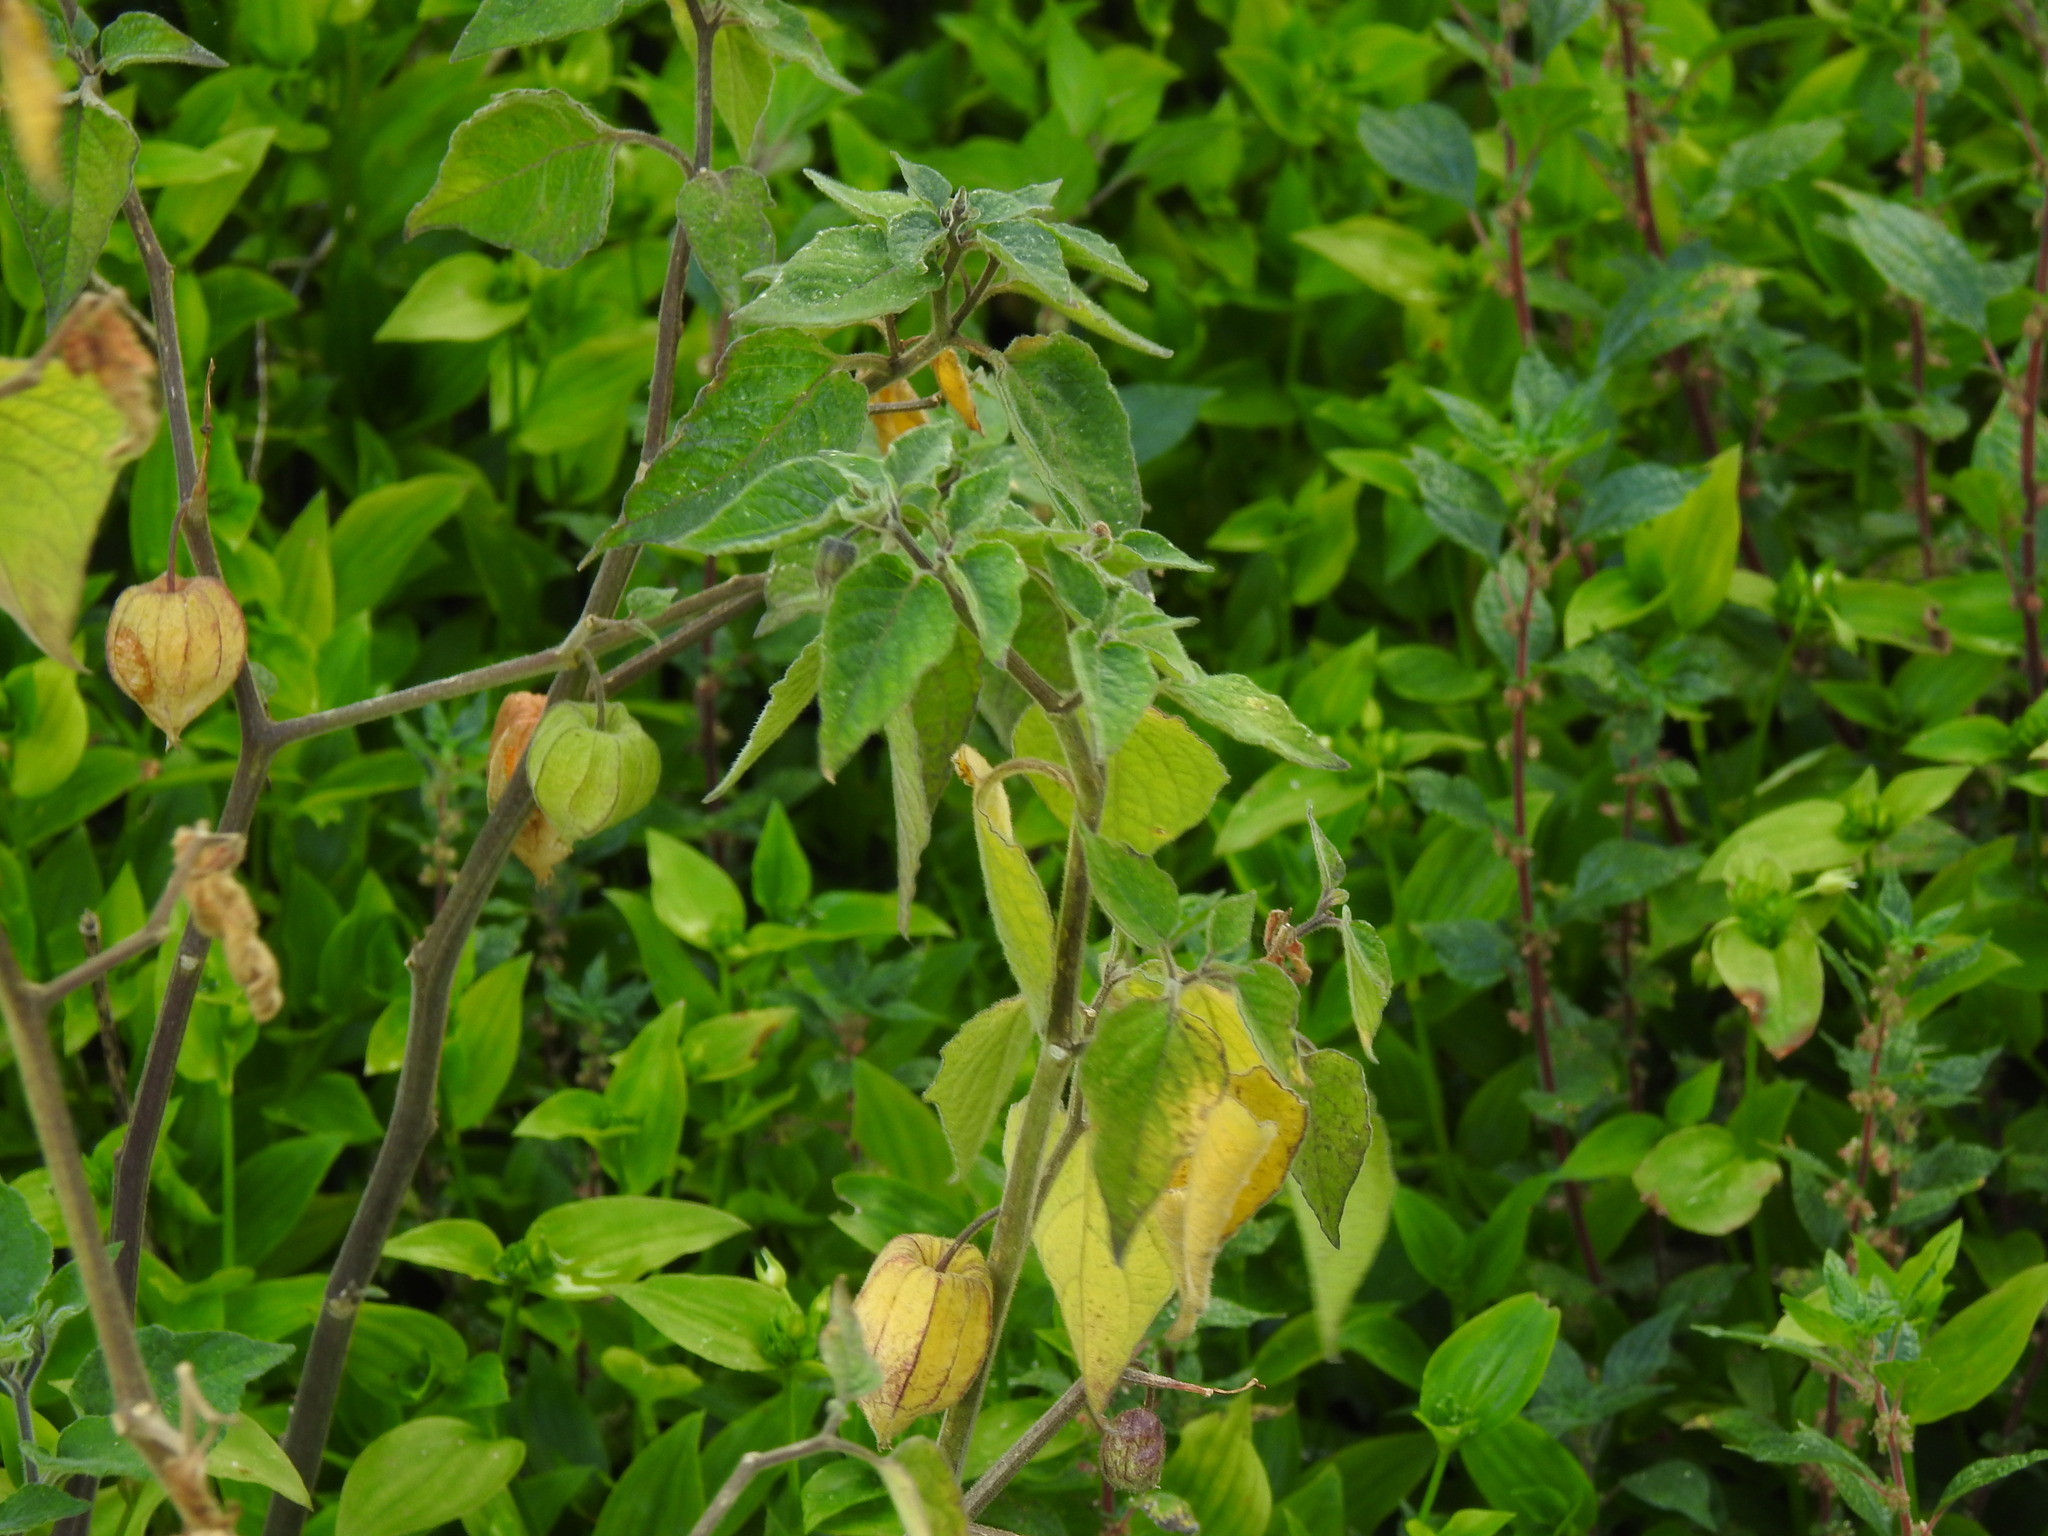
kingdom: Plantae
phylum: Tracheophyta
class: Magnoliopsida
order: Solanales
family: Solanaceae
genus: Physalis
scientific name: Physalis peruviana
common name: Cape-gooseberry
